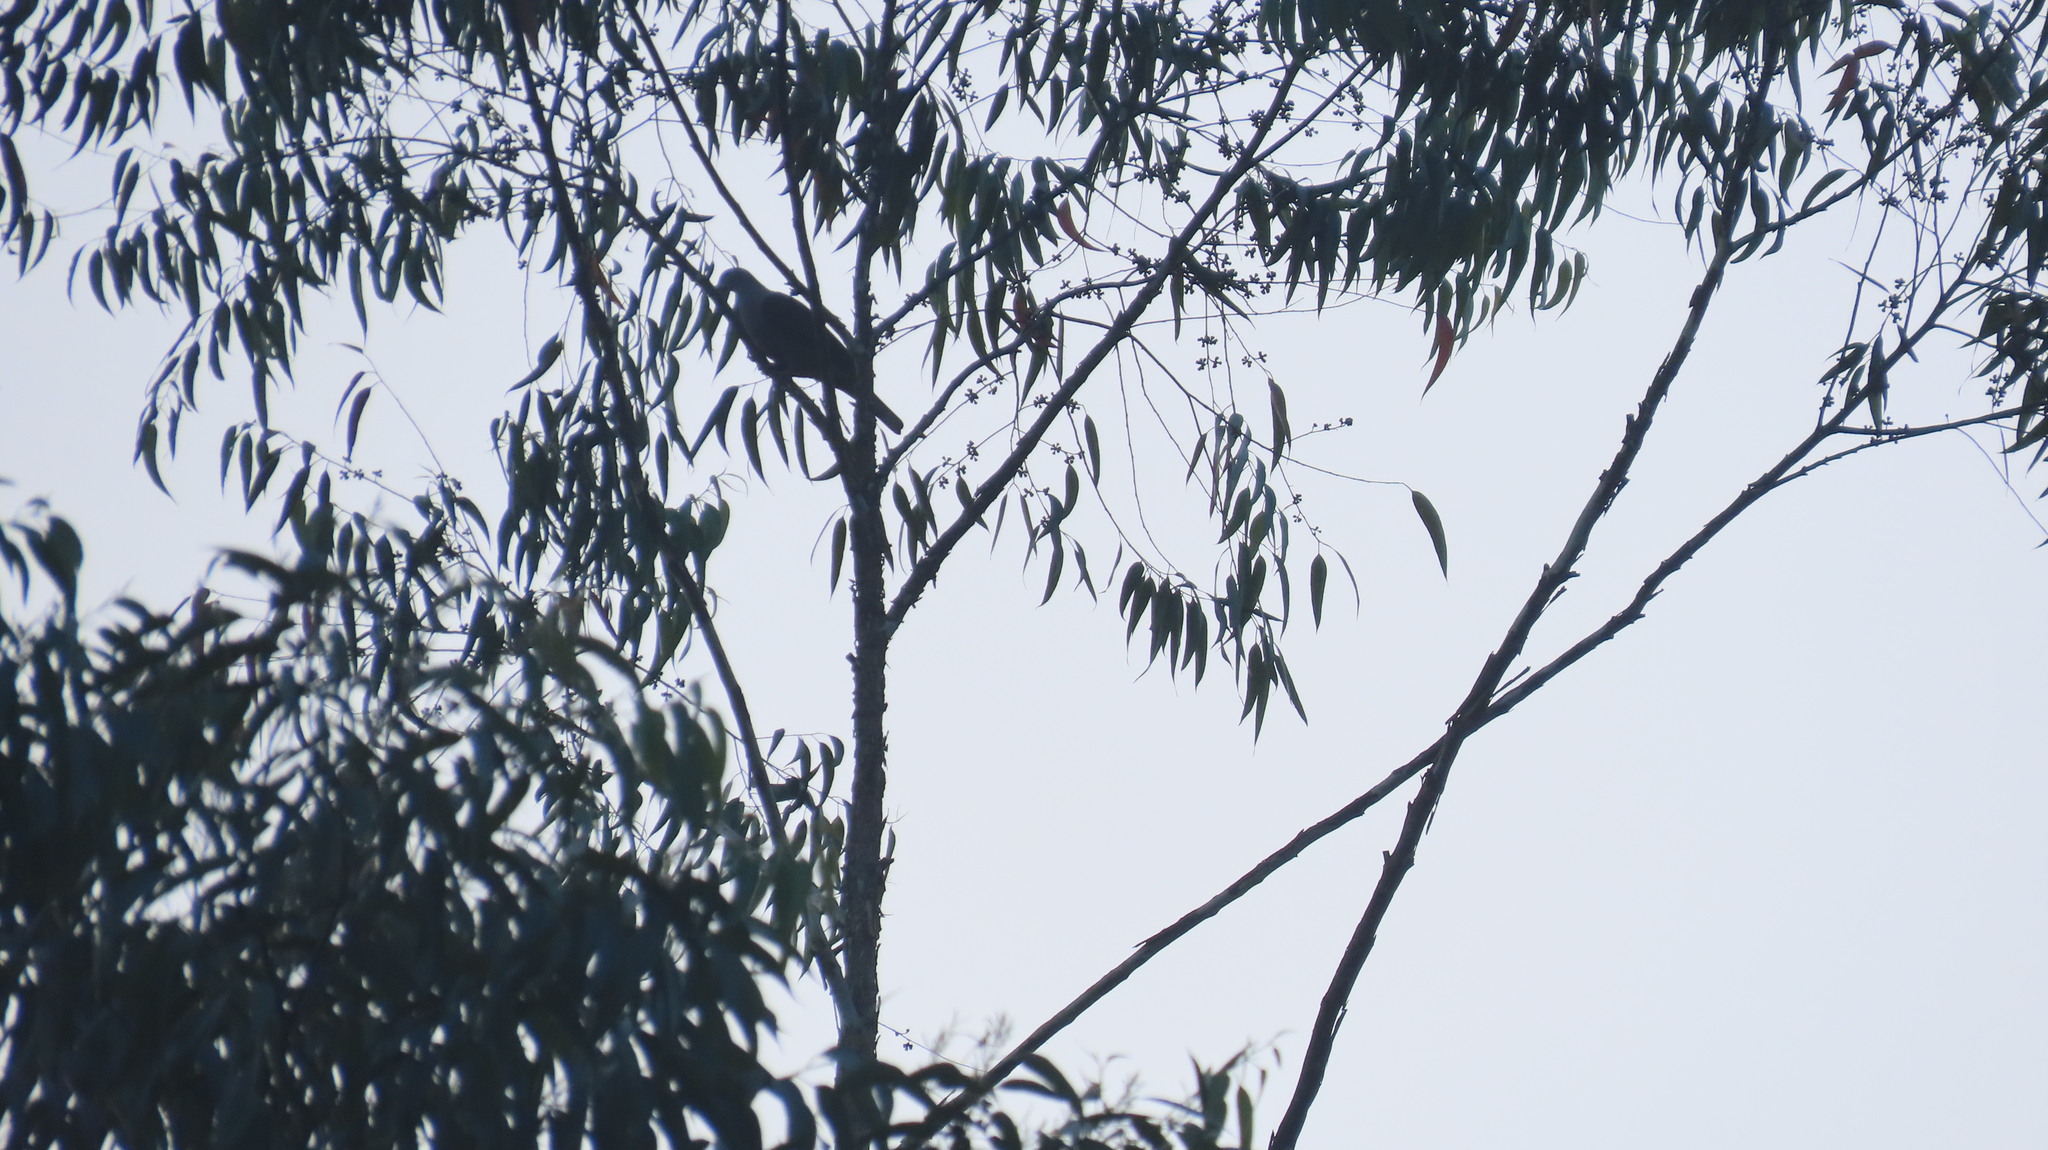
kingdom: Animalia
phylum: Chordata
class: Aves
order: Columbiformes
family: Columbidae
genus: Ducula
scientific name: Ducula badia
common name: Mountain imperial pigeon
